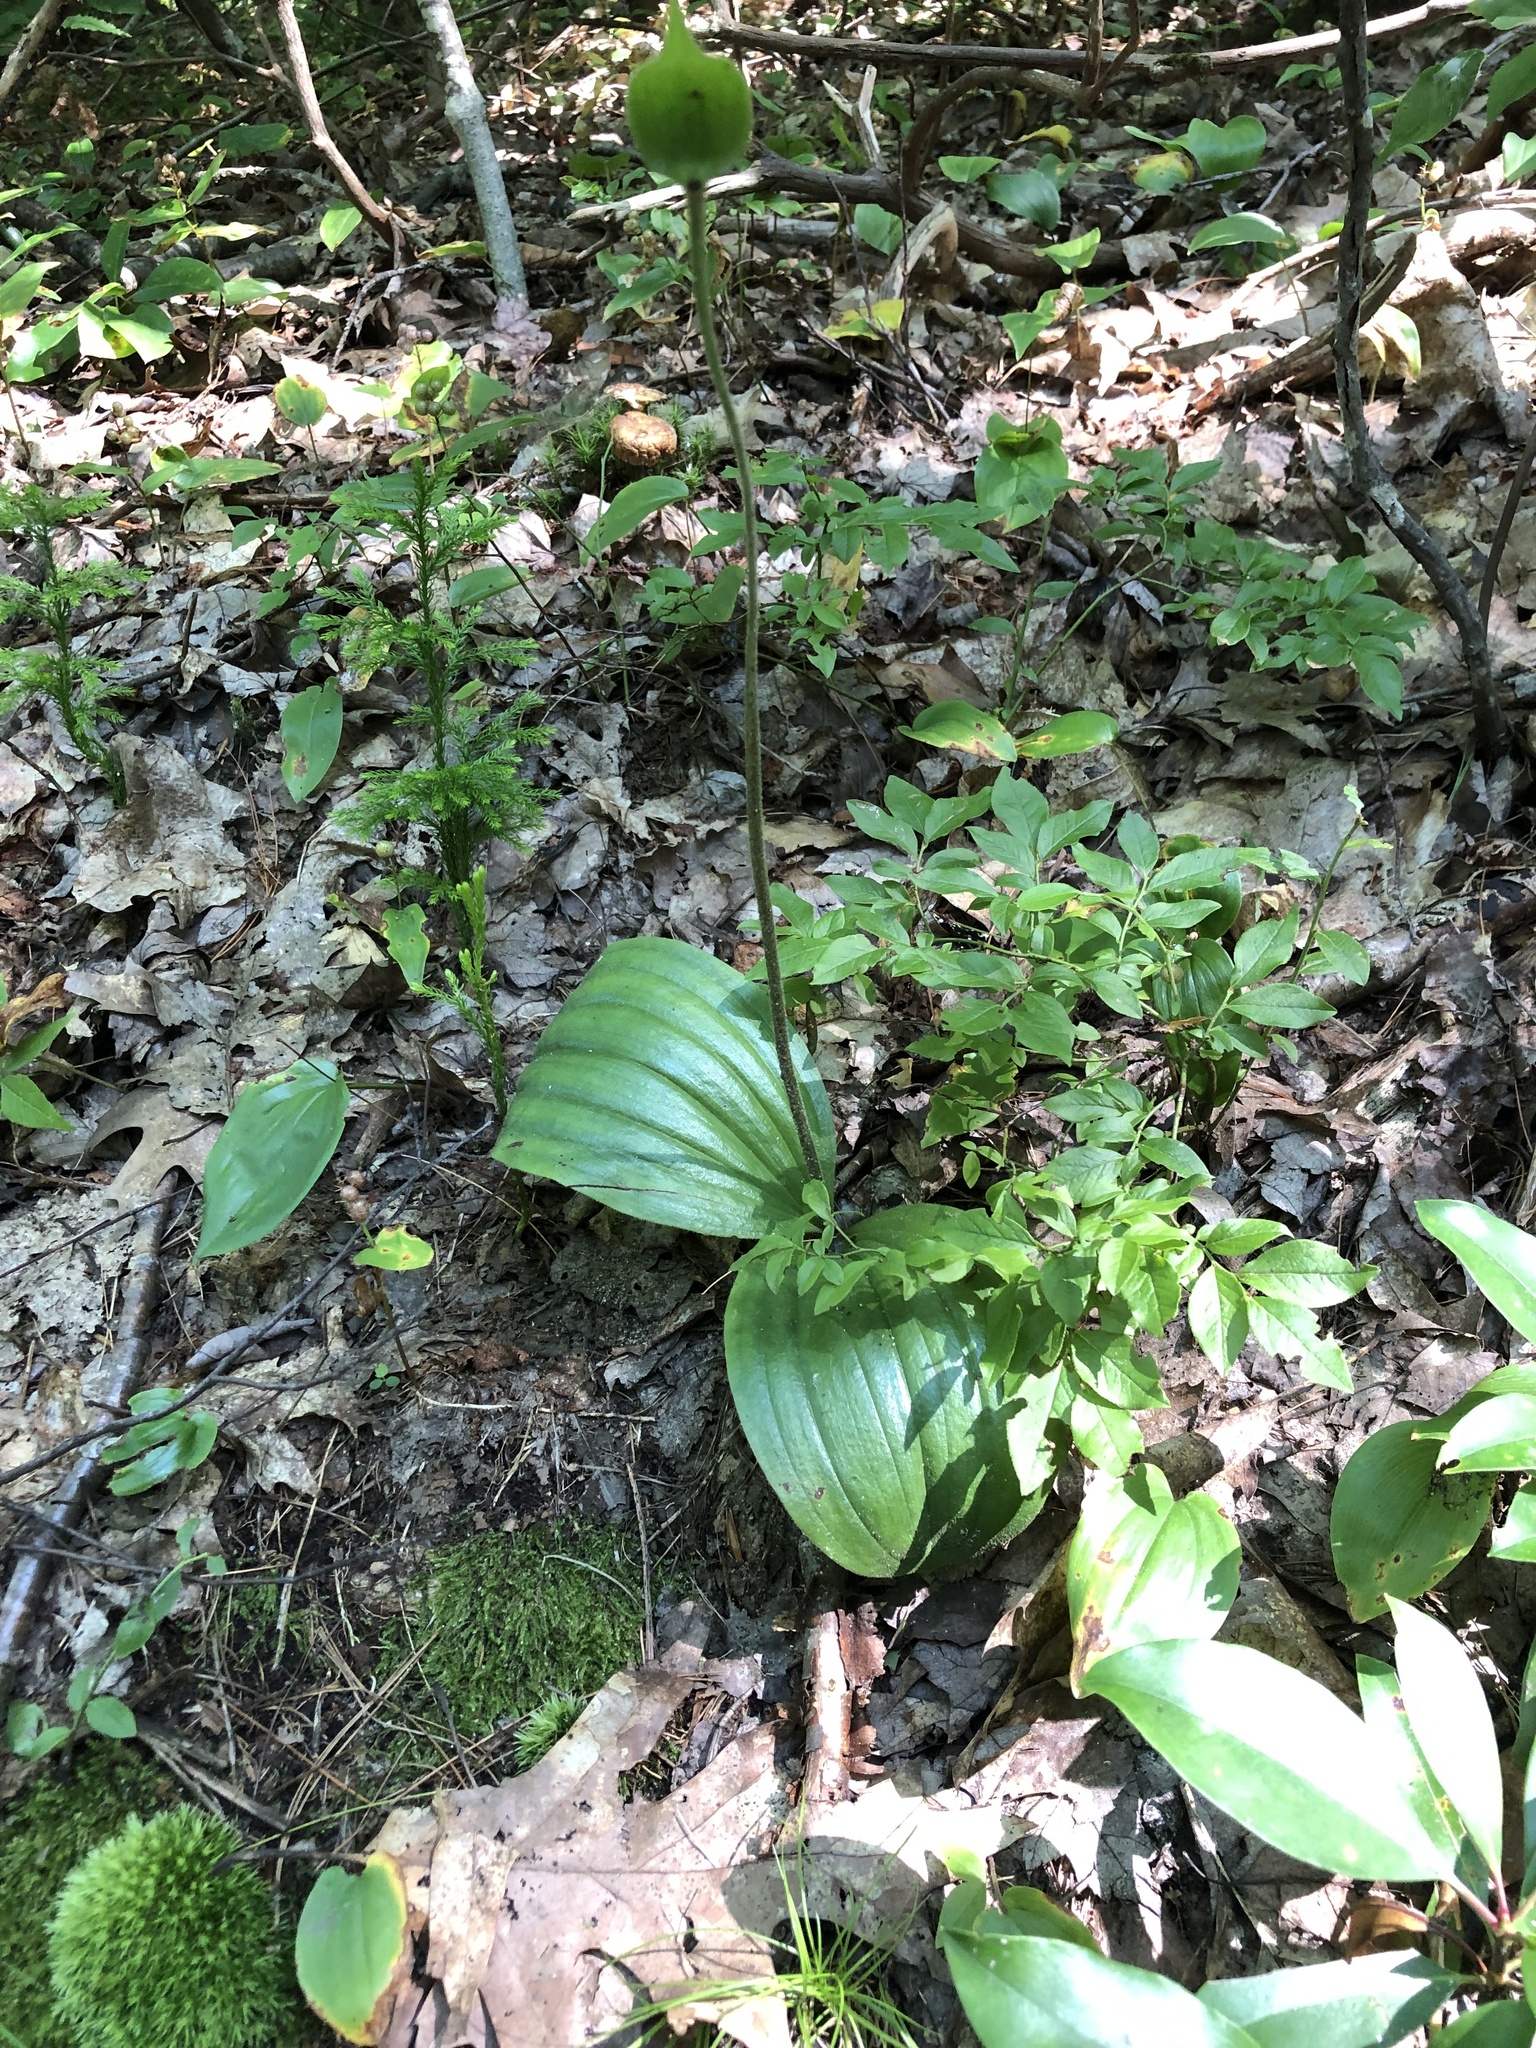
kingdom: Plantae
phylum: Tracheophyta
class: Liliopsida
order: Asparagales
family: Orchidaceae
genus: Cypripedium
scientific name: Cypripedium acaule
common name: Pink lady's-slipper
